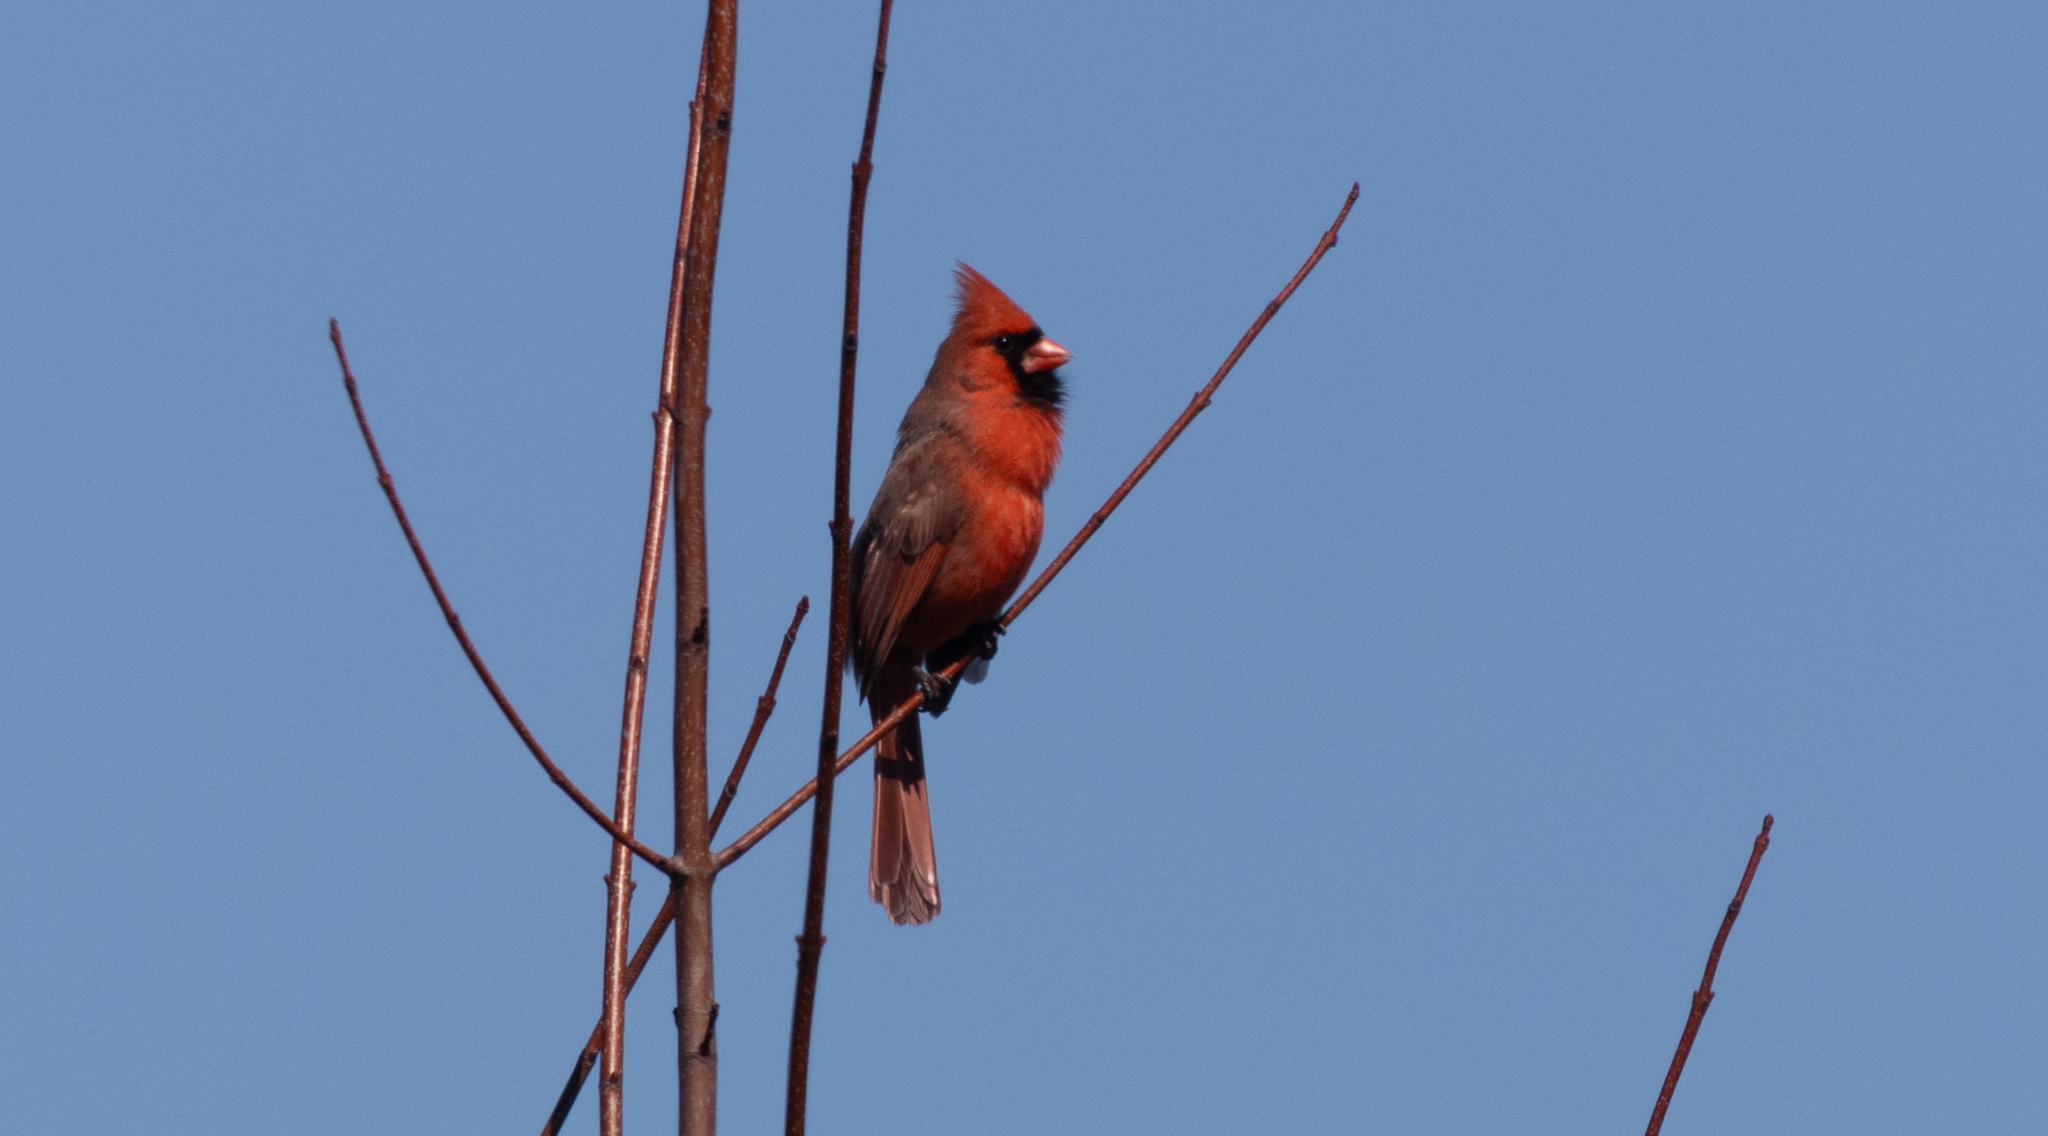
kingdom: Animalia
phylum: Chordata
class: Aves
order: Passeriformes
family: Cardinalidae
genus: Cardinalis
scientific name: Cardinalis cardinalis
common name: Northern cardinal
